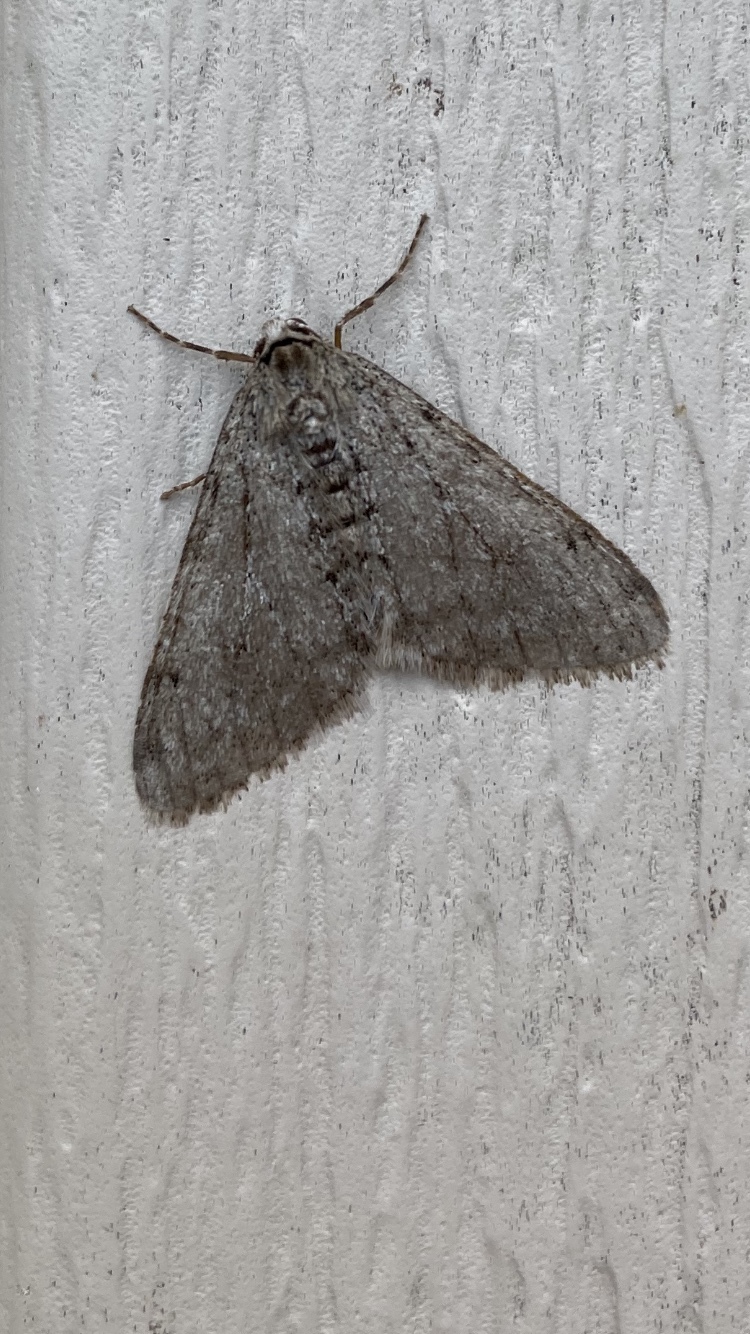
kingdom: Animalia
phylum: Arthropoda
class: Insecta
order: Lepidoptera
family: Geometridae
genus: Phigalia
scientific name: Phigalia strigataria
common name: Small phigalia
